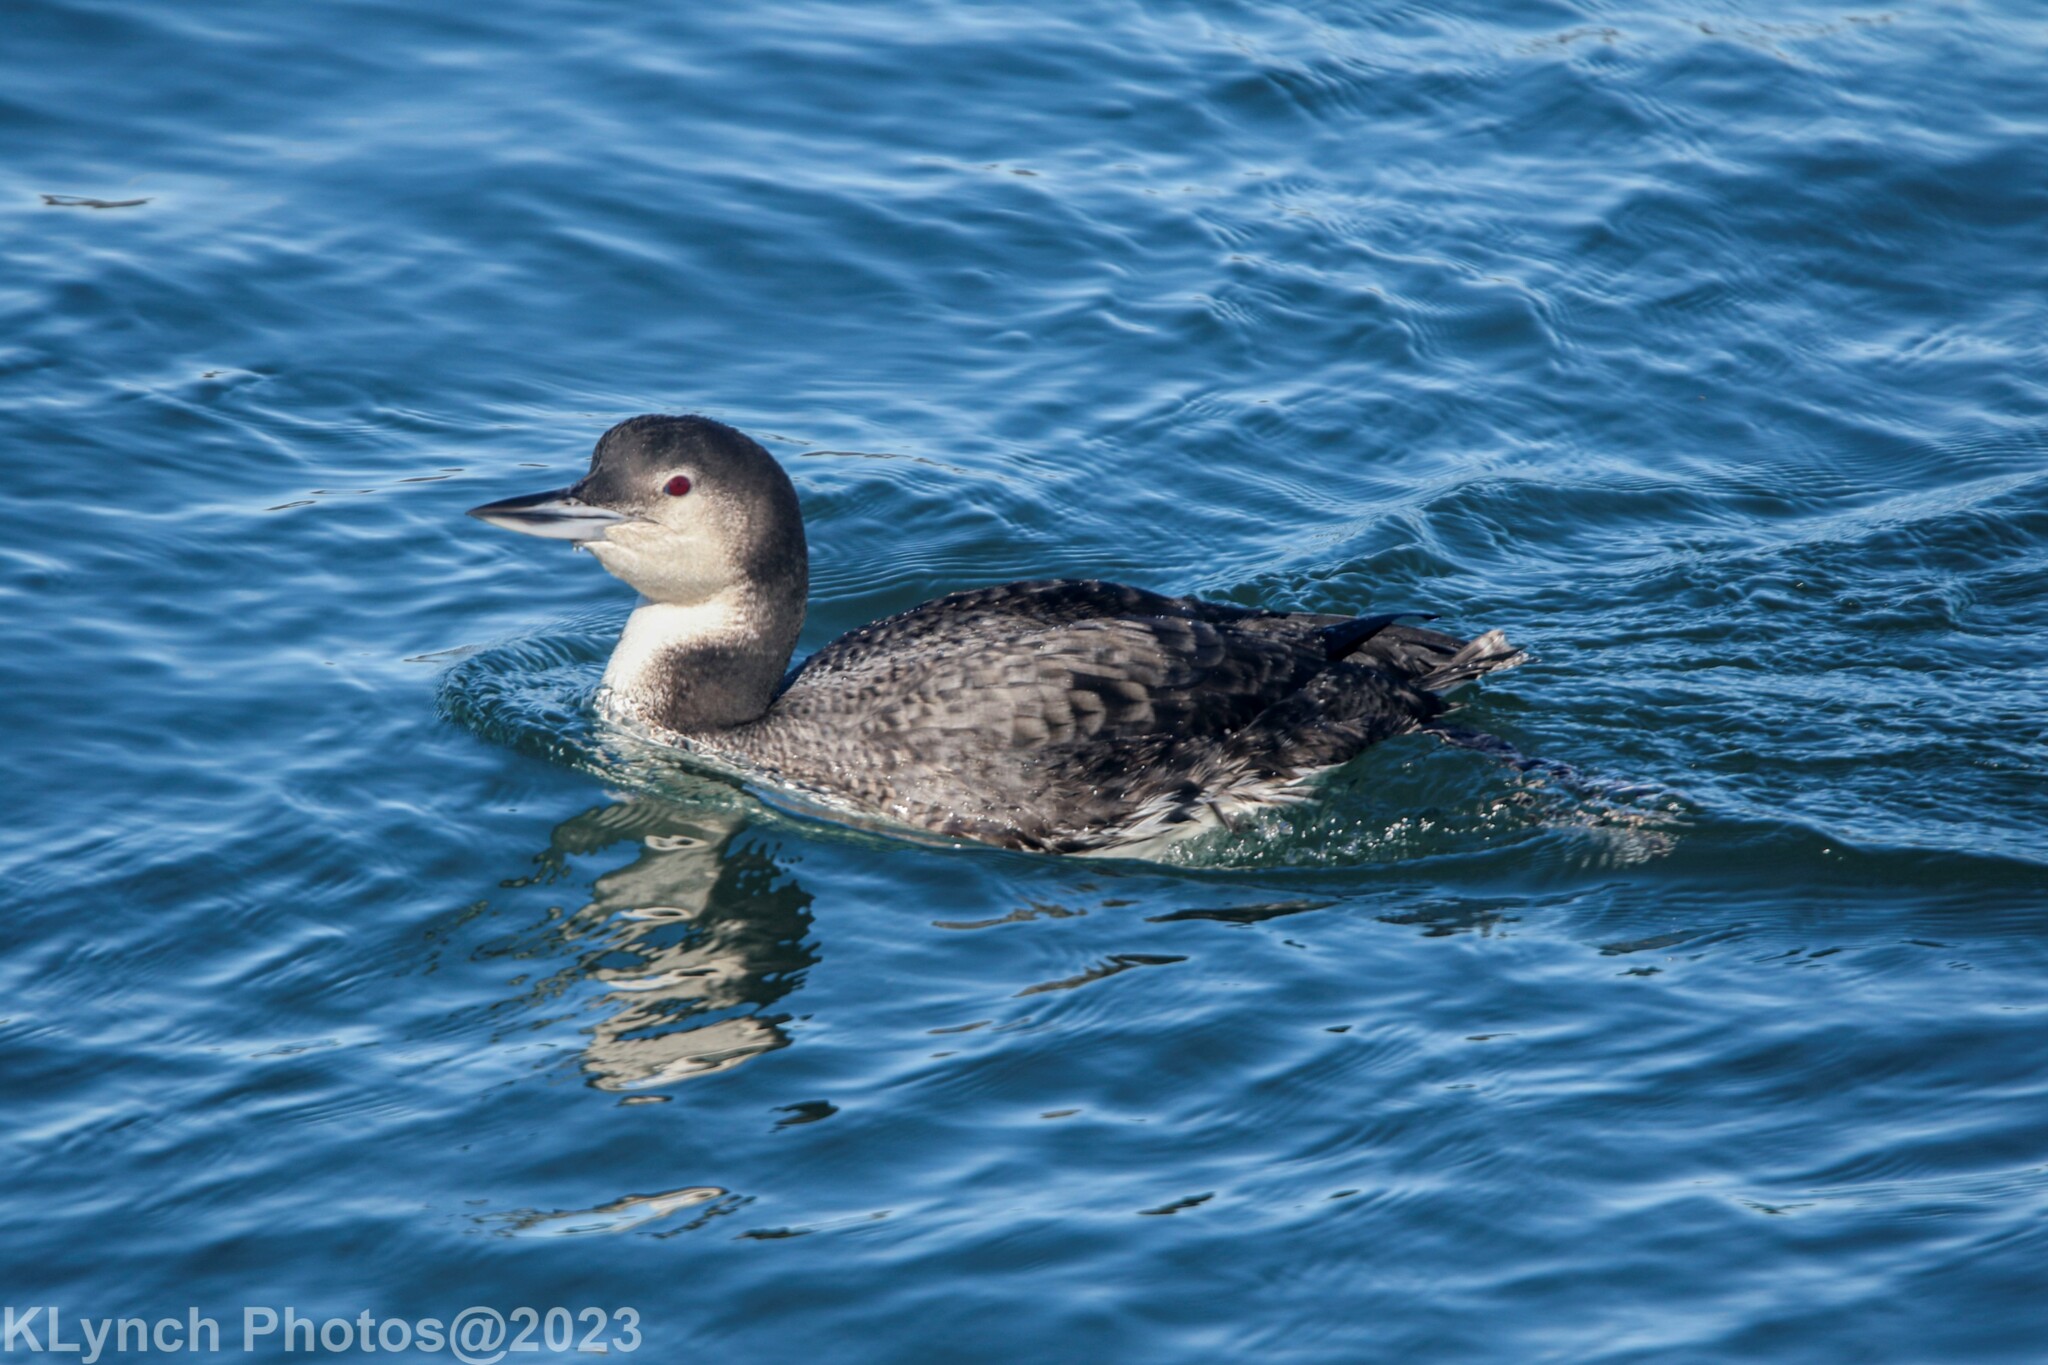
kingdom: Animalia
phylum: Chordata
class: Aves
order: Gaviiformes
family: Gaviidae
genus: Gavia
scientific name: Gavia immer
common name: Common loon
